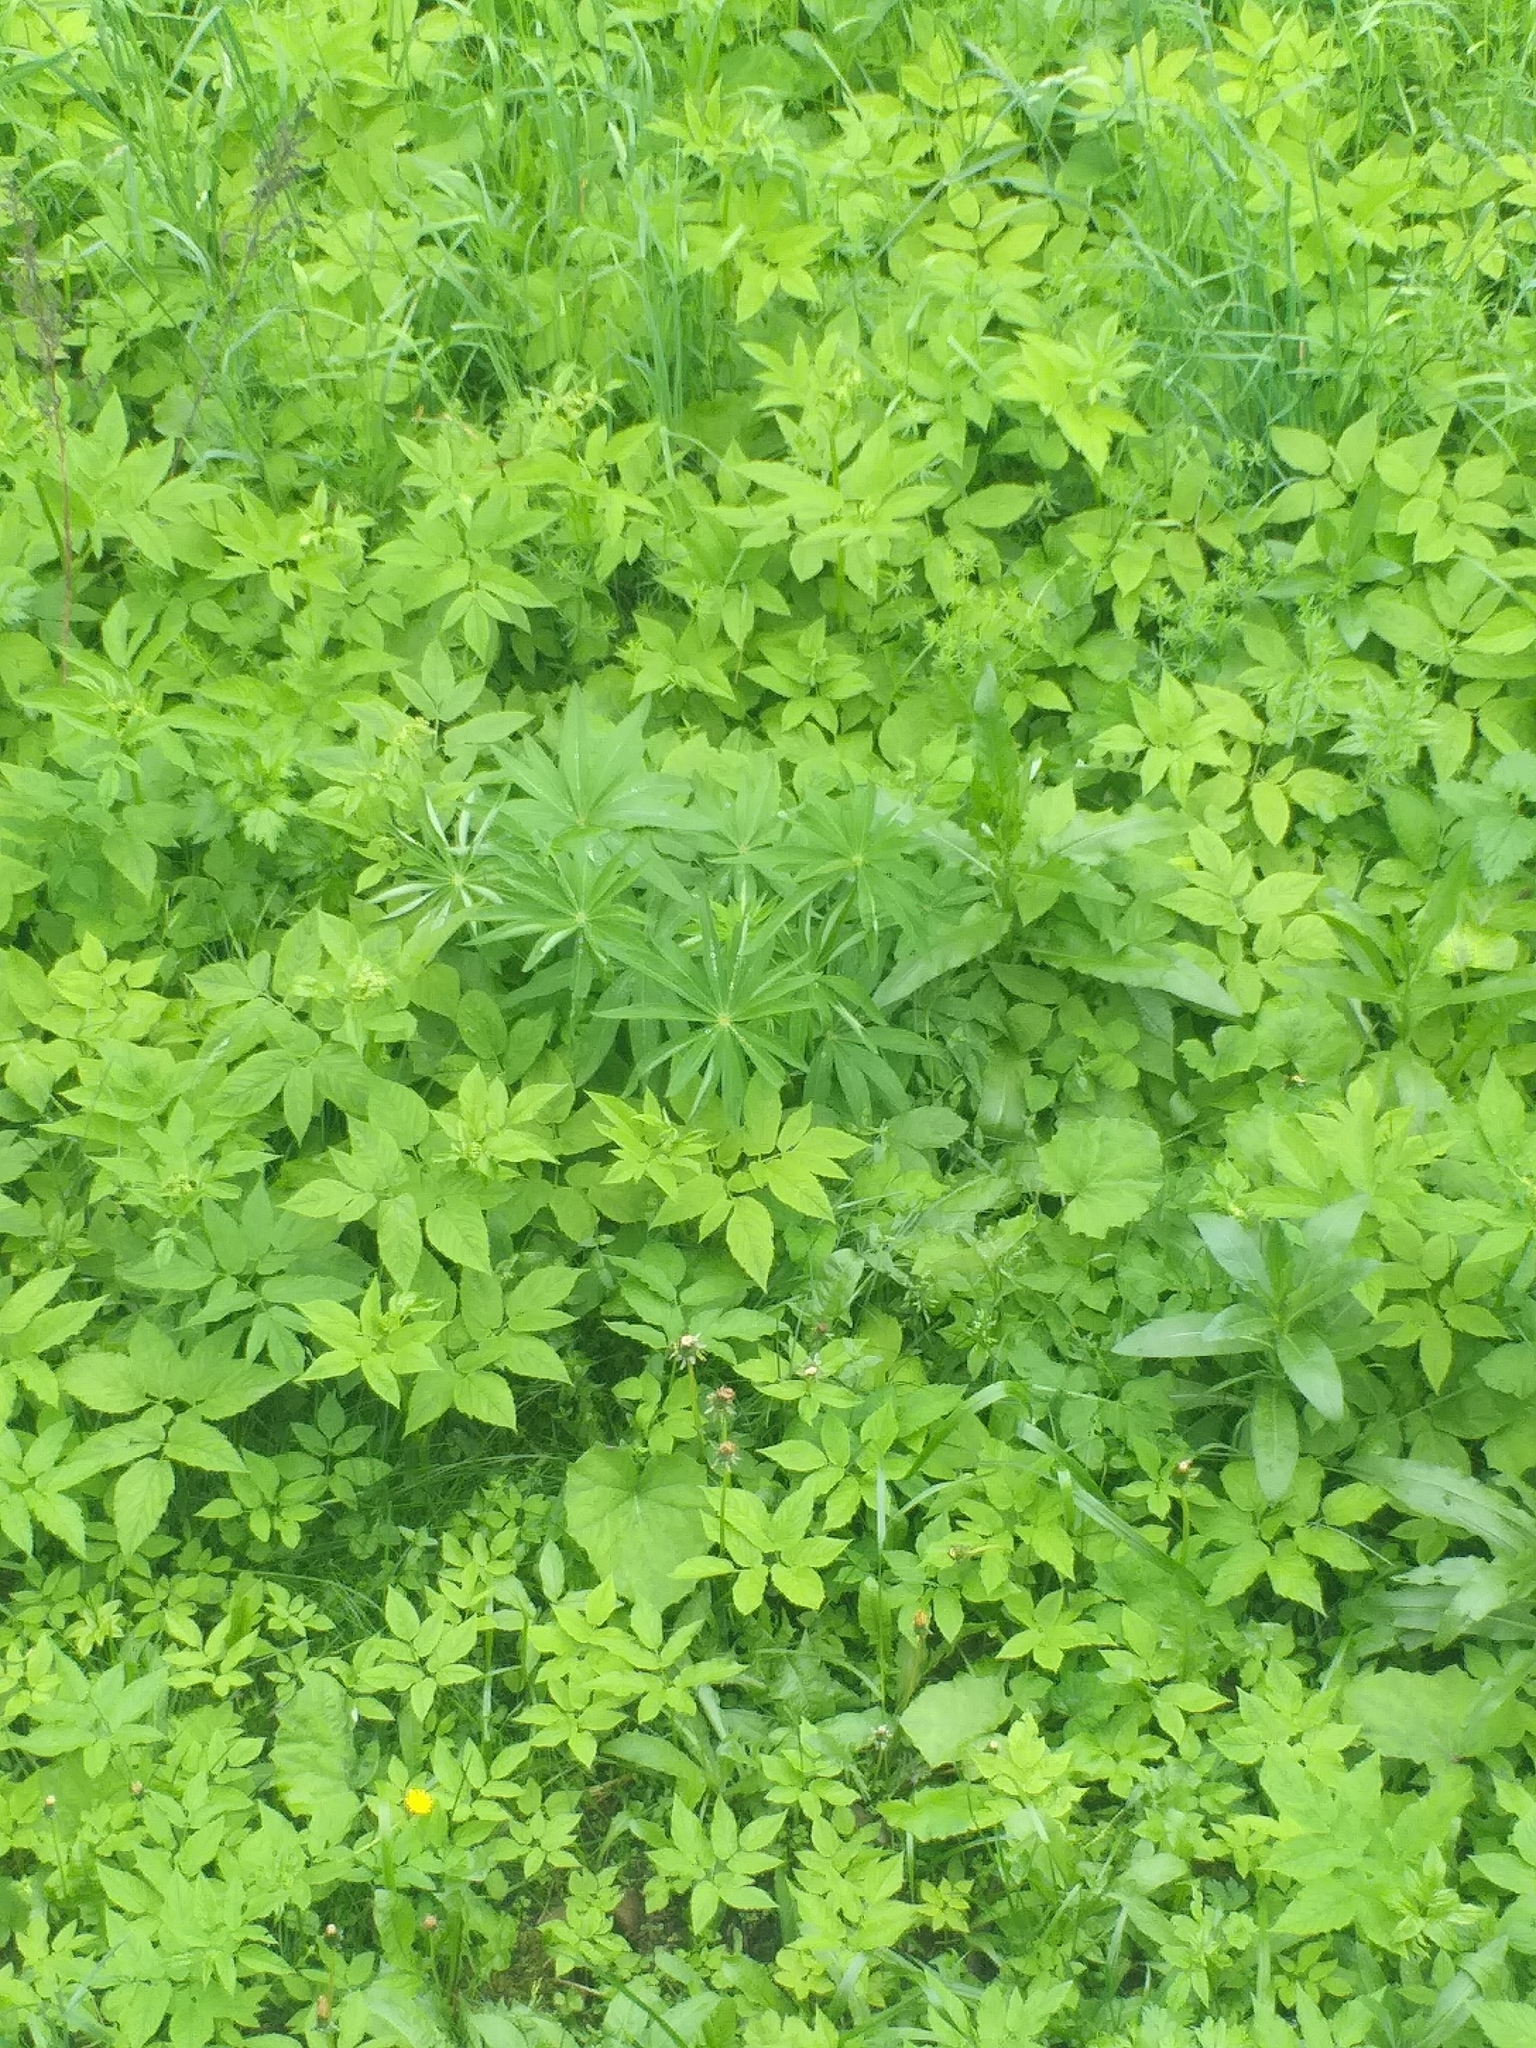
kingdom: Plantae
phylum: Tracheophyta
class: Magnoliopsida
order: Fabales
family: Fabaceae
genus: Lupinus
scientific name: Lupinus polyphyllus
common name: Garden lupin
